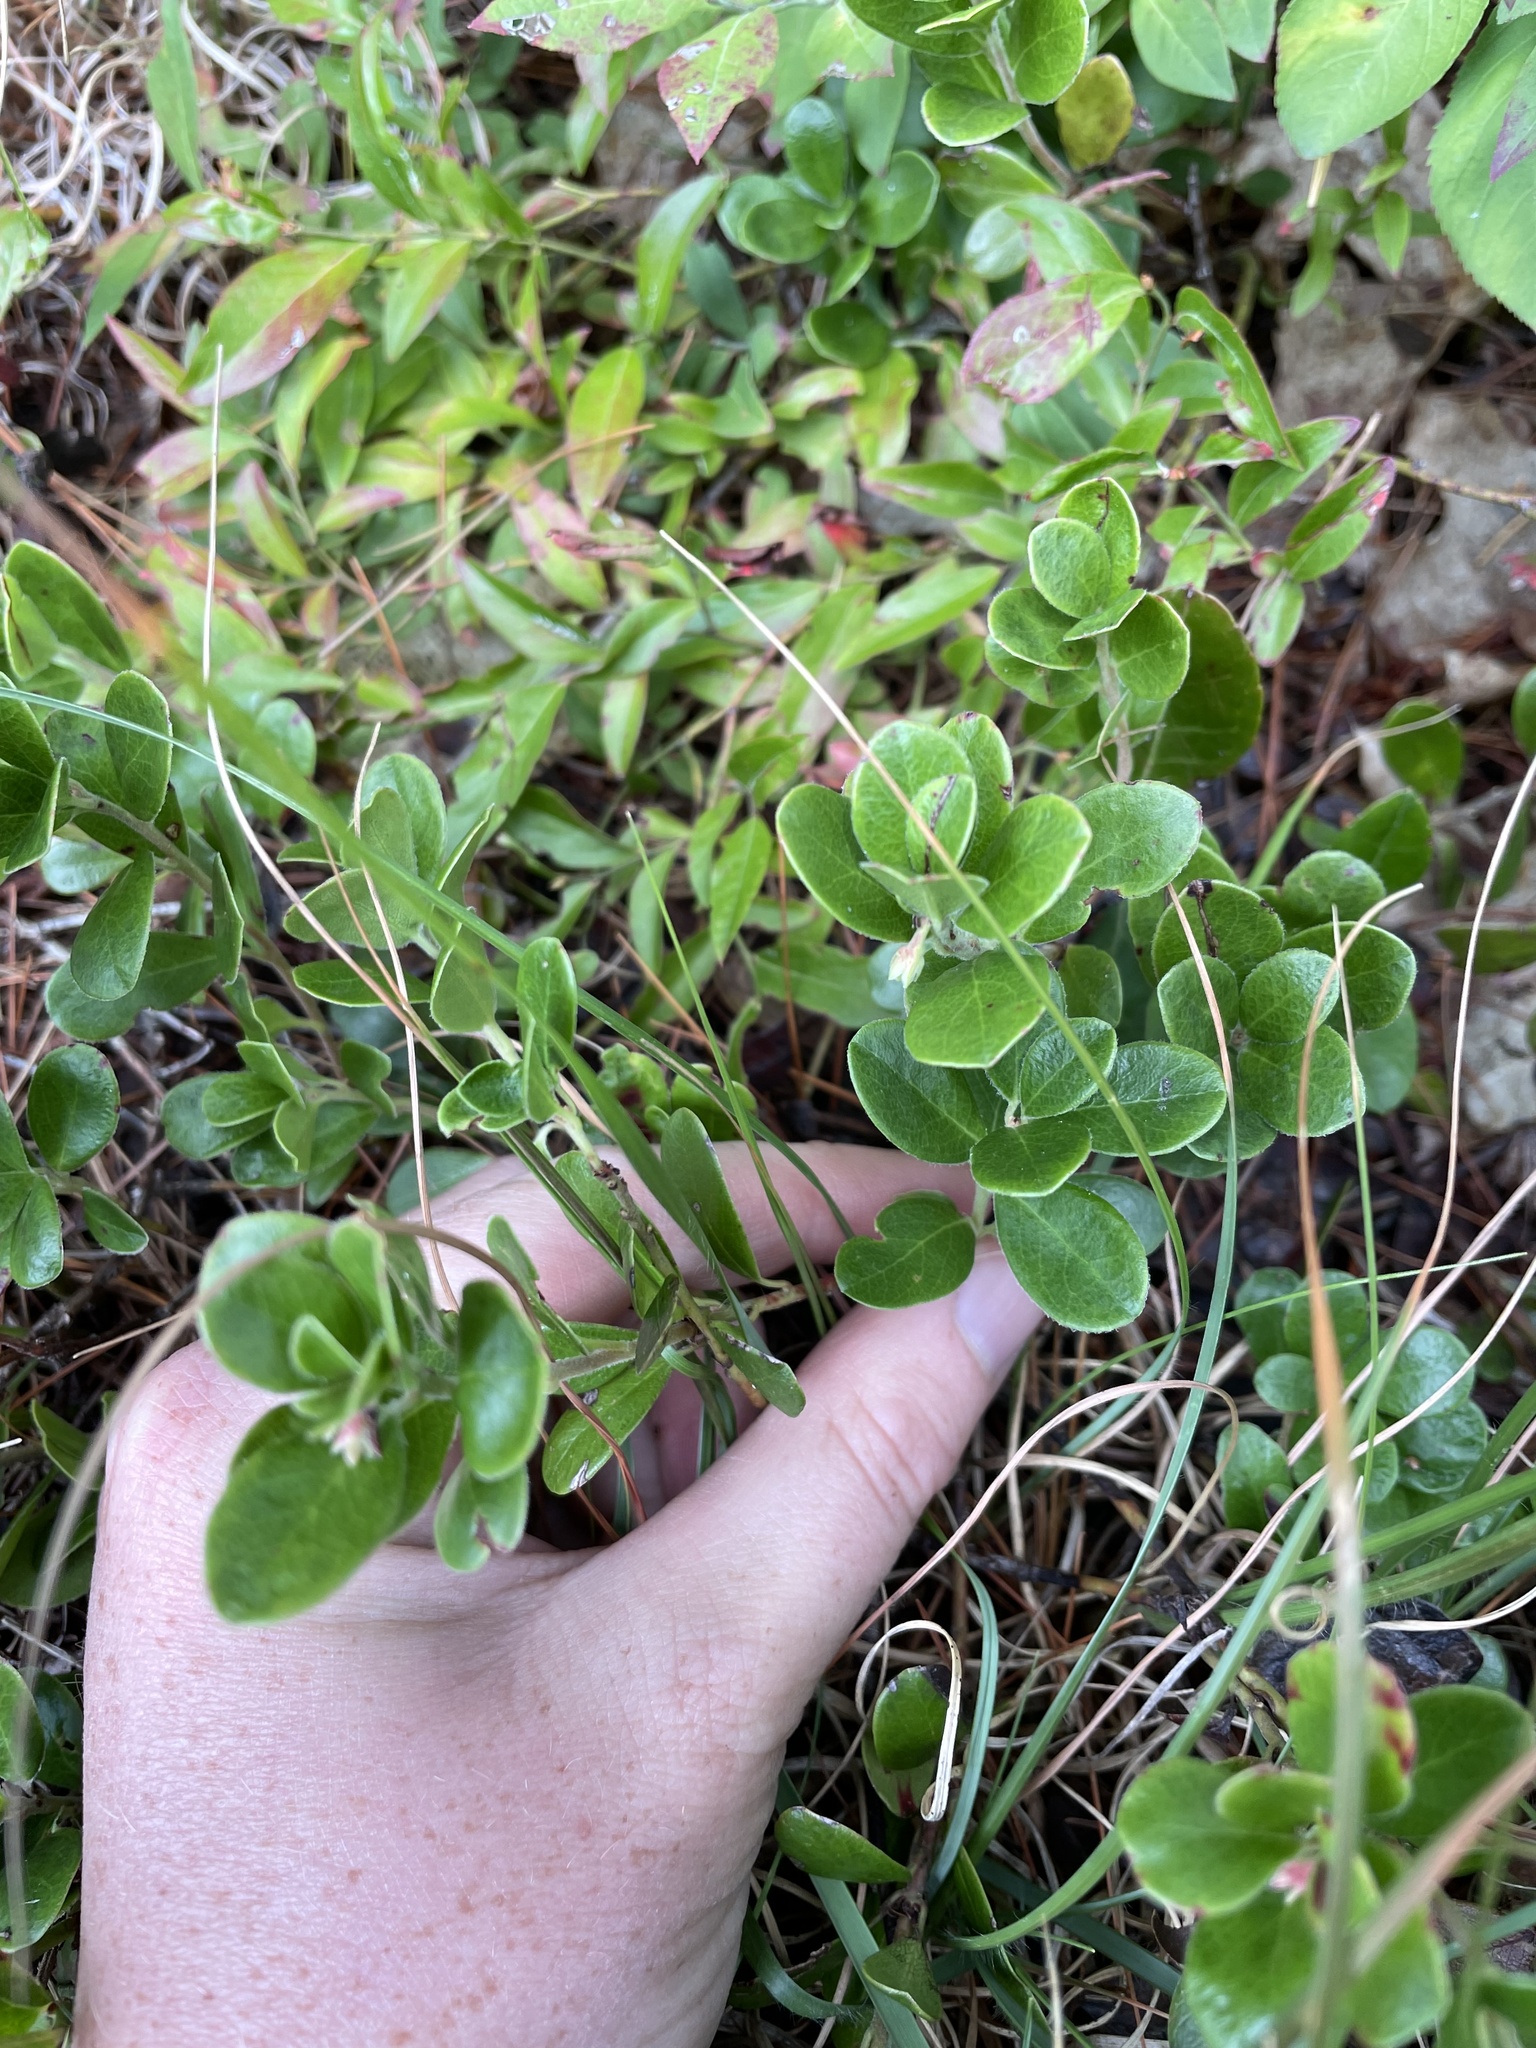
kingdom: Plantae
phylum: Tracheophyta
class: Magnoliopsida
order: Ericales
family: Ericaceae
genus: Arctostaphylos
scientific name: Arctostaphylos uva-ursi
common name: Bearberry
